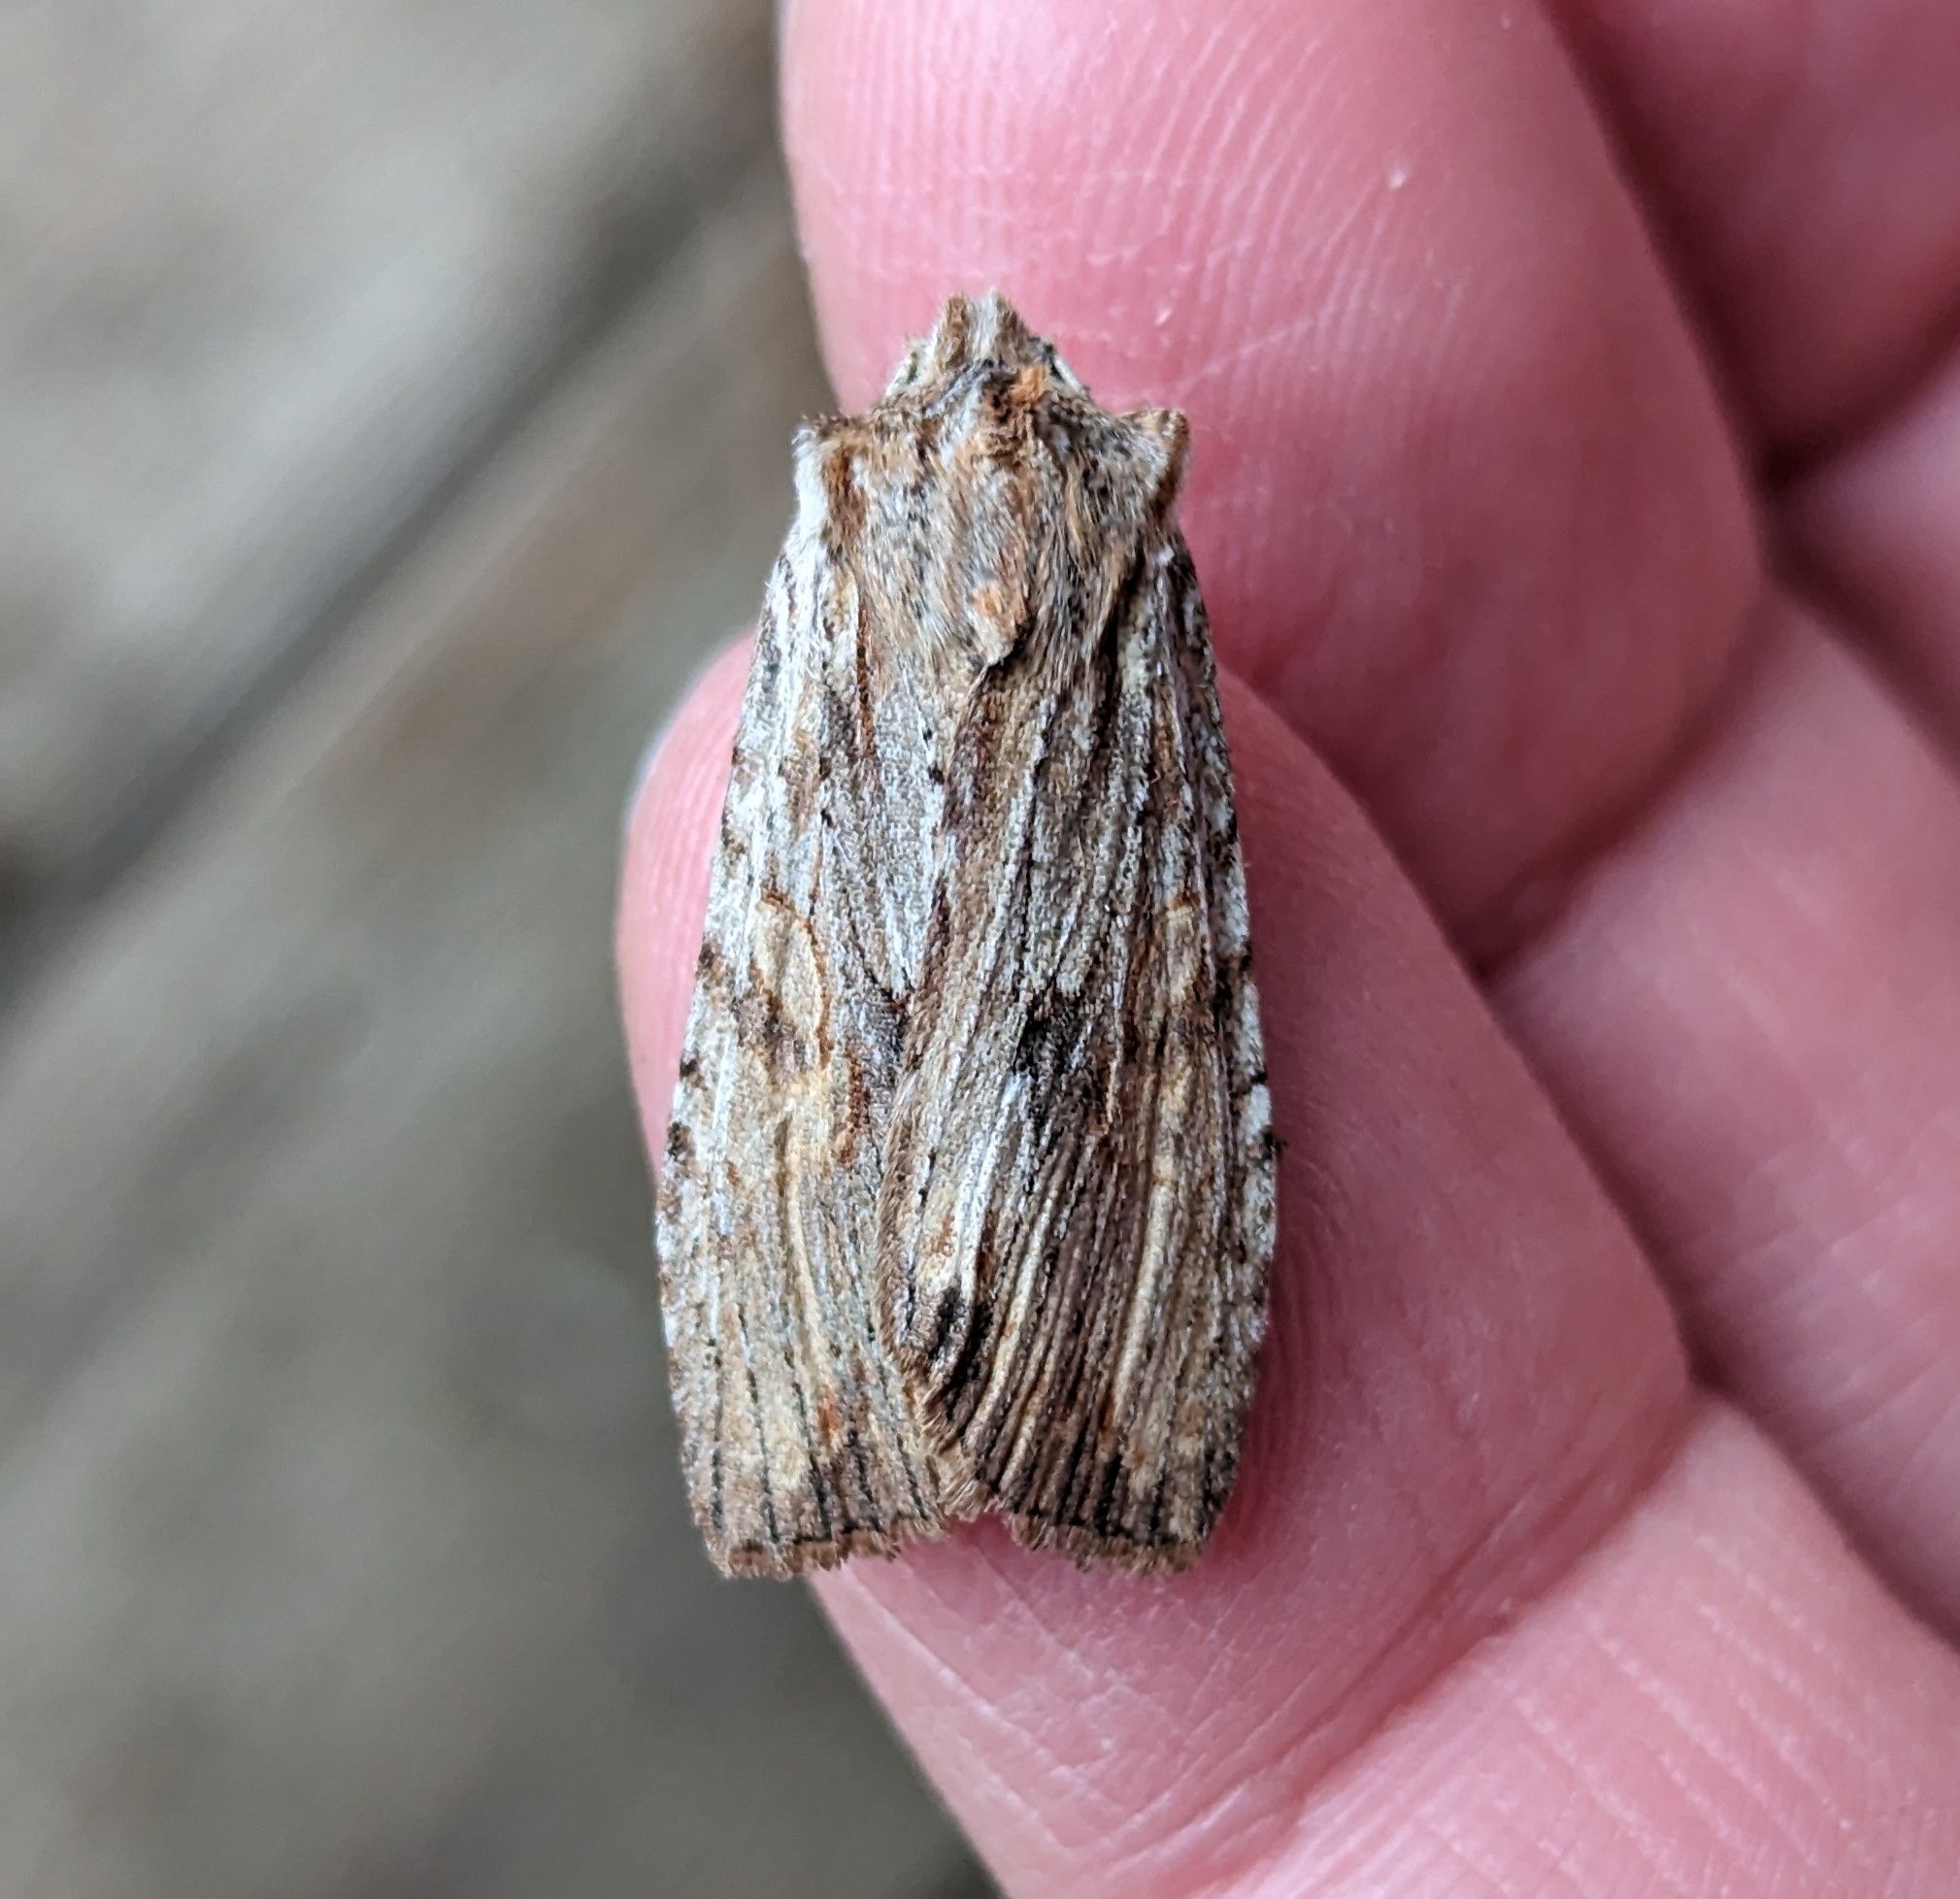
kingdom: Animalia
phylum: Arthropoda
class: Insecta
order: Lepidoptera
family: Noctuidae
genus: Lithophane
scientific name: Lithophane petulca
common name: Wanton pinion
